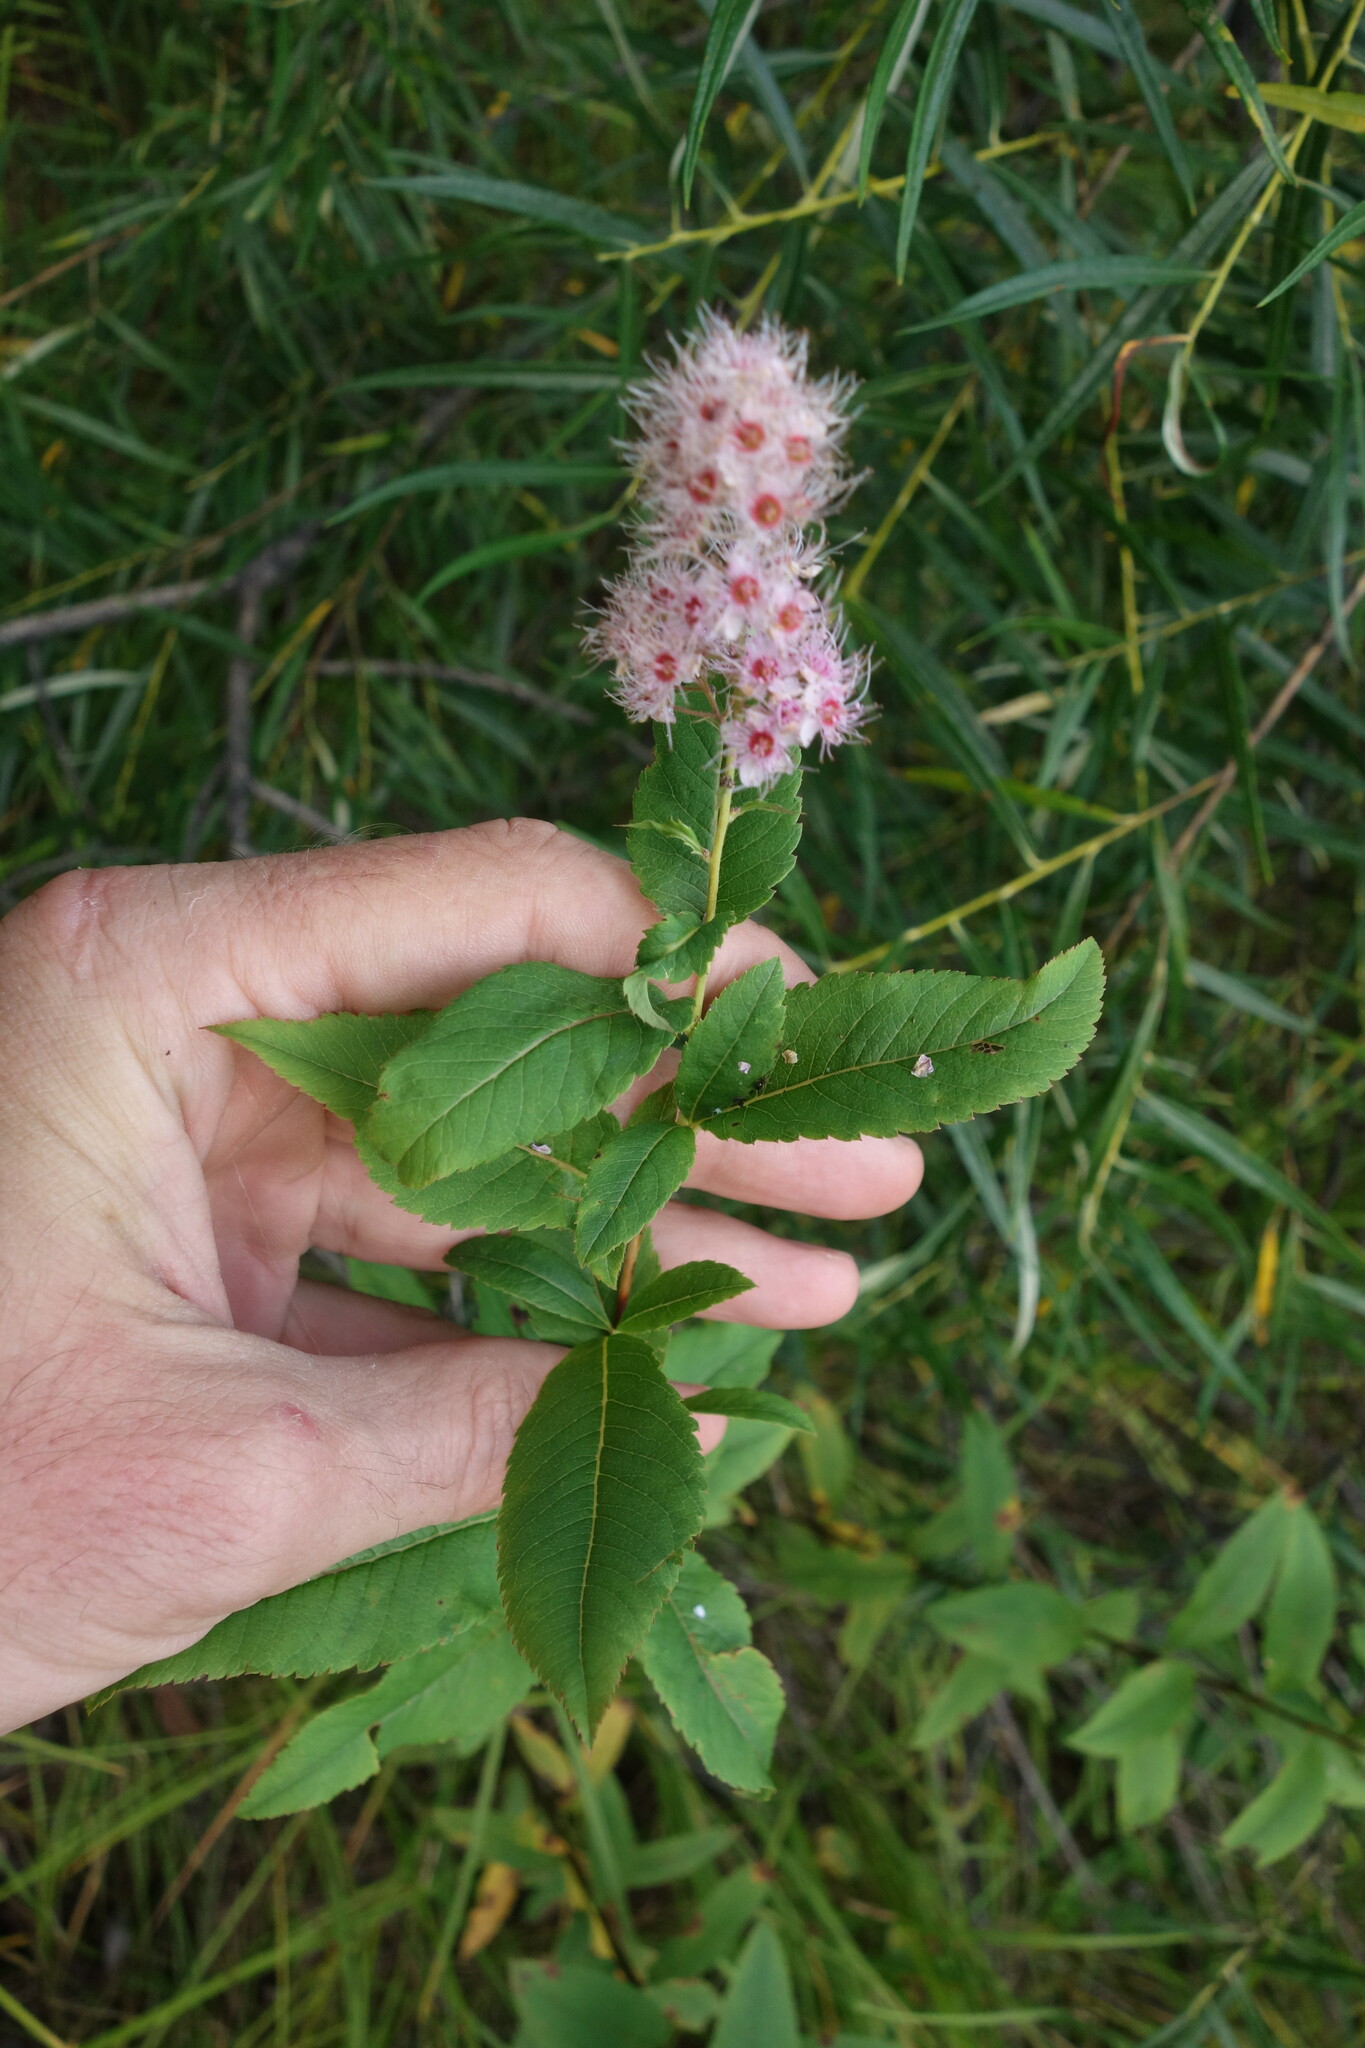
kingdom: Plantae
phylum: Tracheophyta
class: Magnoliopsida
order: Rosales
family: Rosaceae
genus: Spiraea
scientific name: Spiraea salicifolia
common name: Bridewort
